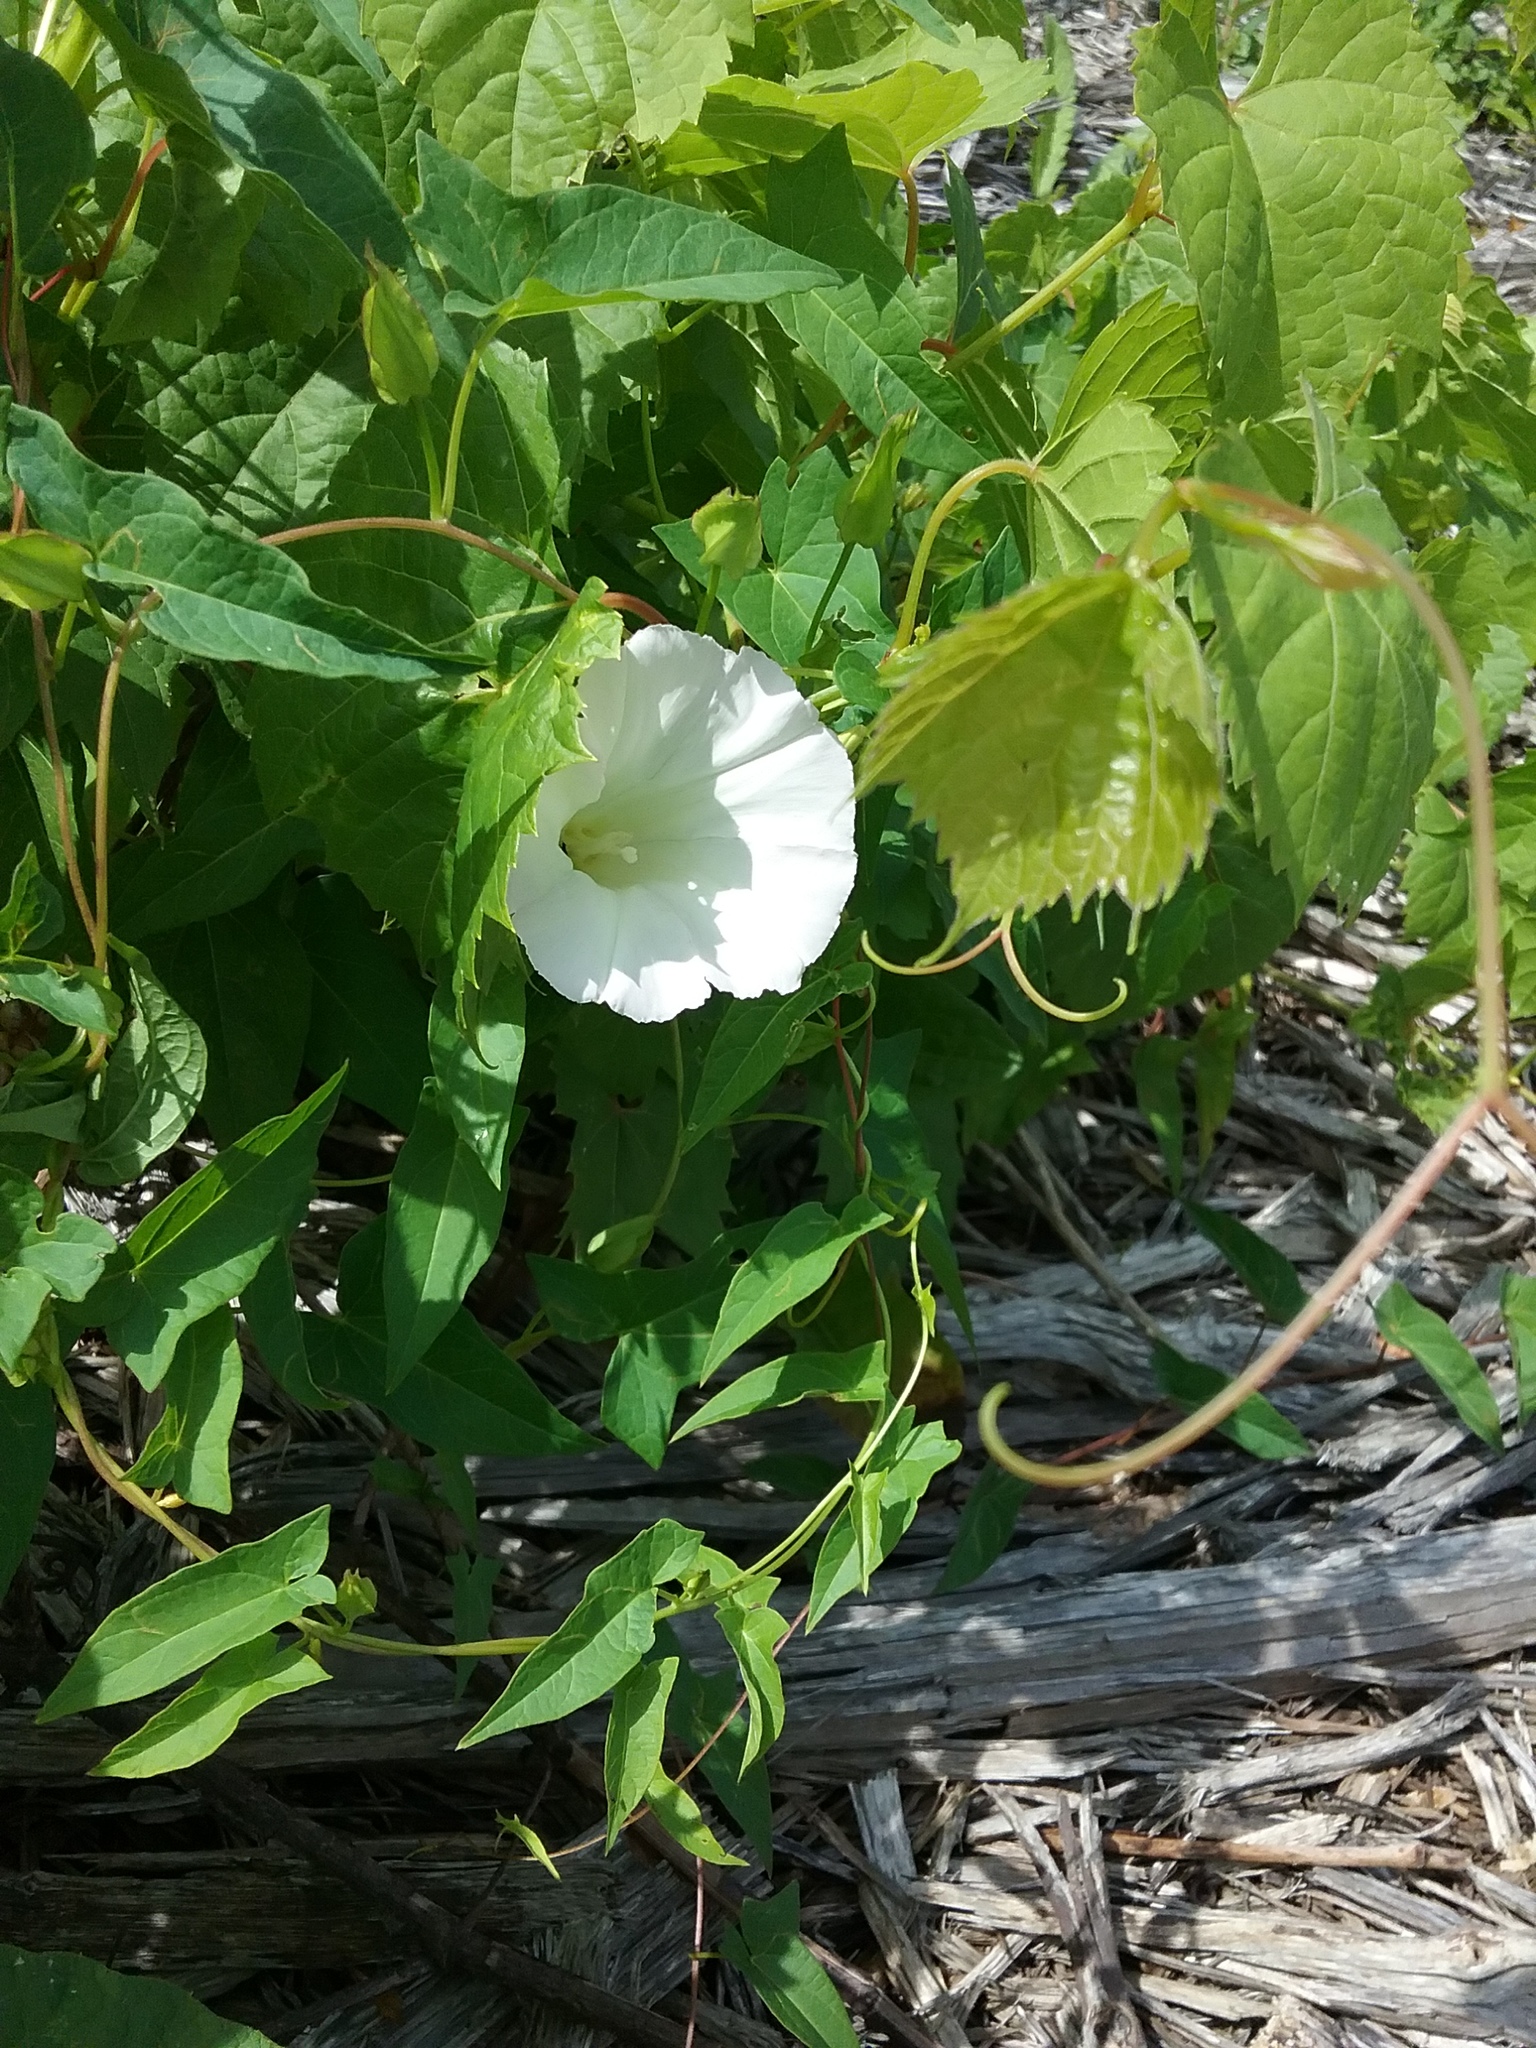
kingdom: Plantae
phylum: Tracheophyta
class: Magnoliopsida
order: Solanales
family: Convolvulaceae
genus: Calystegia
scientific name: Calystegia sepium
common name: Hedge bindweed
